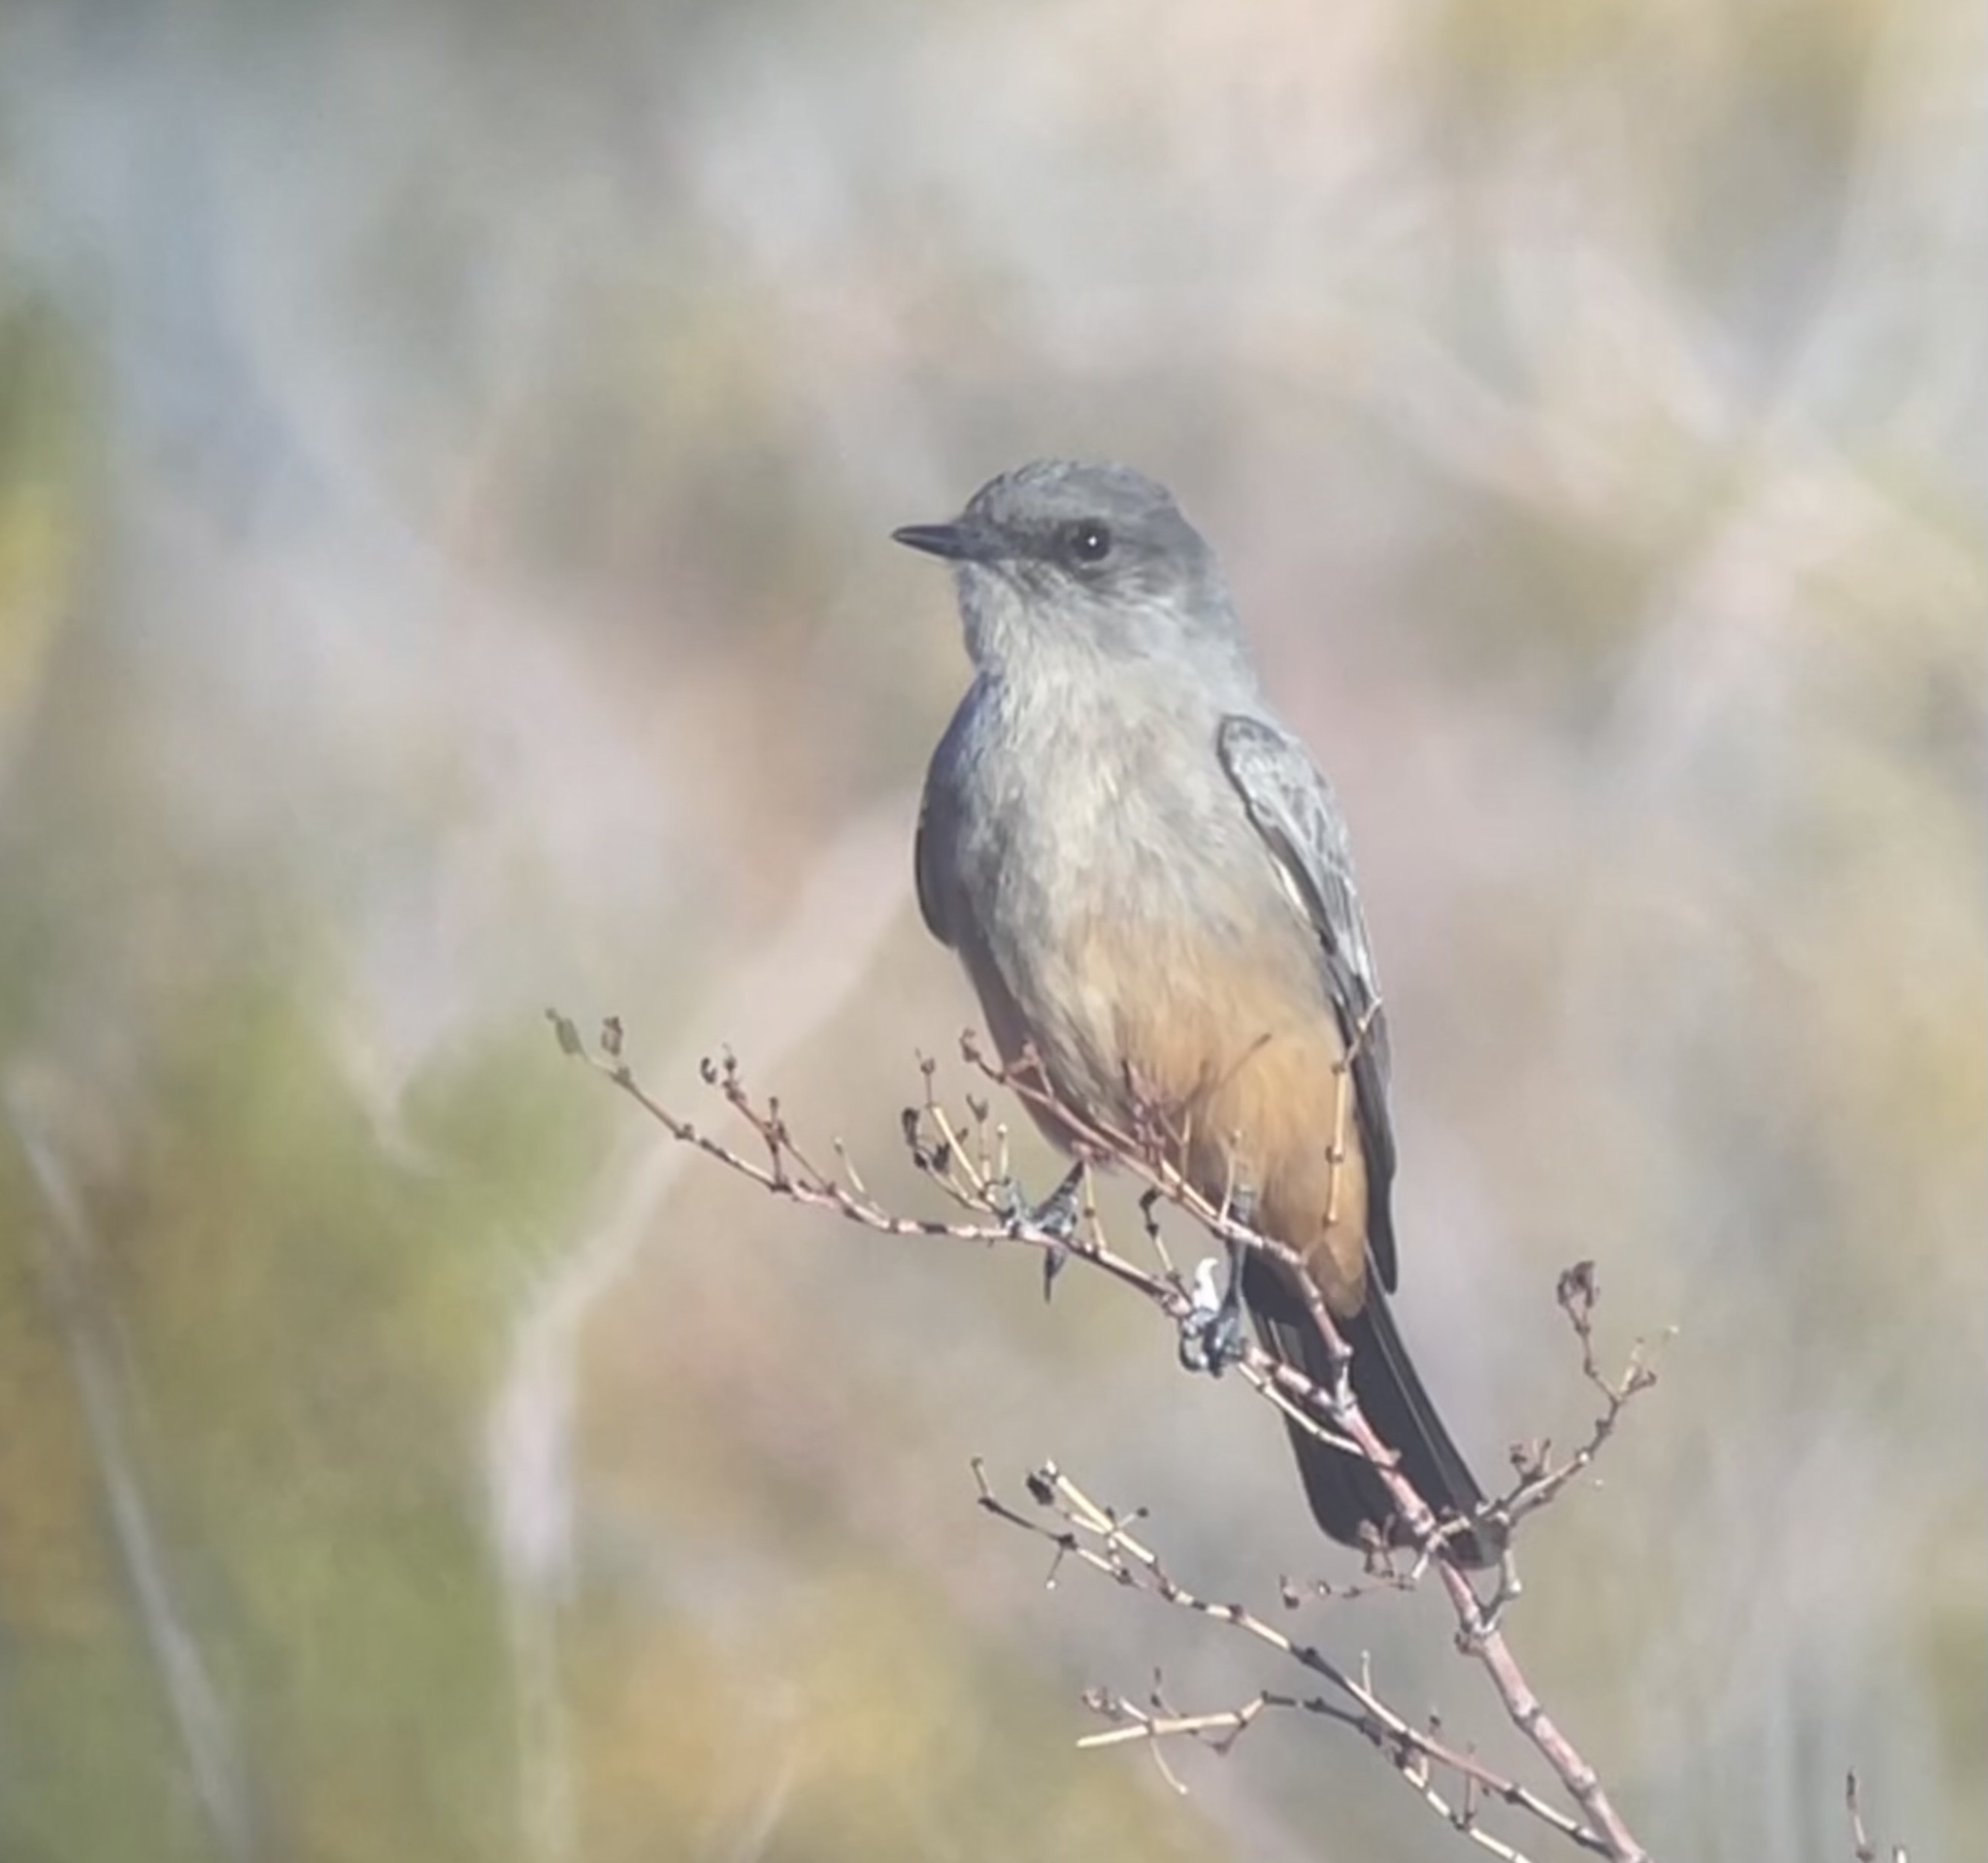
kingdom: Animalia
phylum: Chordata
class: Aves
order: Passeriformes
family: Tyrannidae
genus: Sayornis
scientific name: Sayornis saya
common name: Say's phoebe
